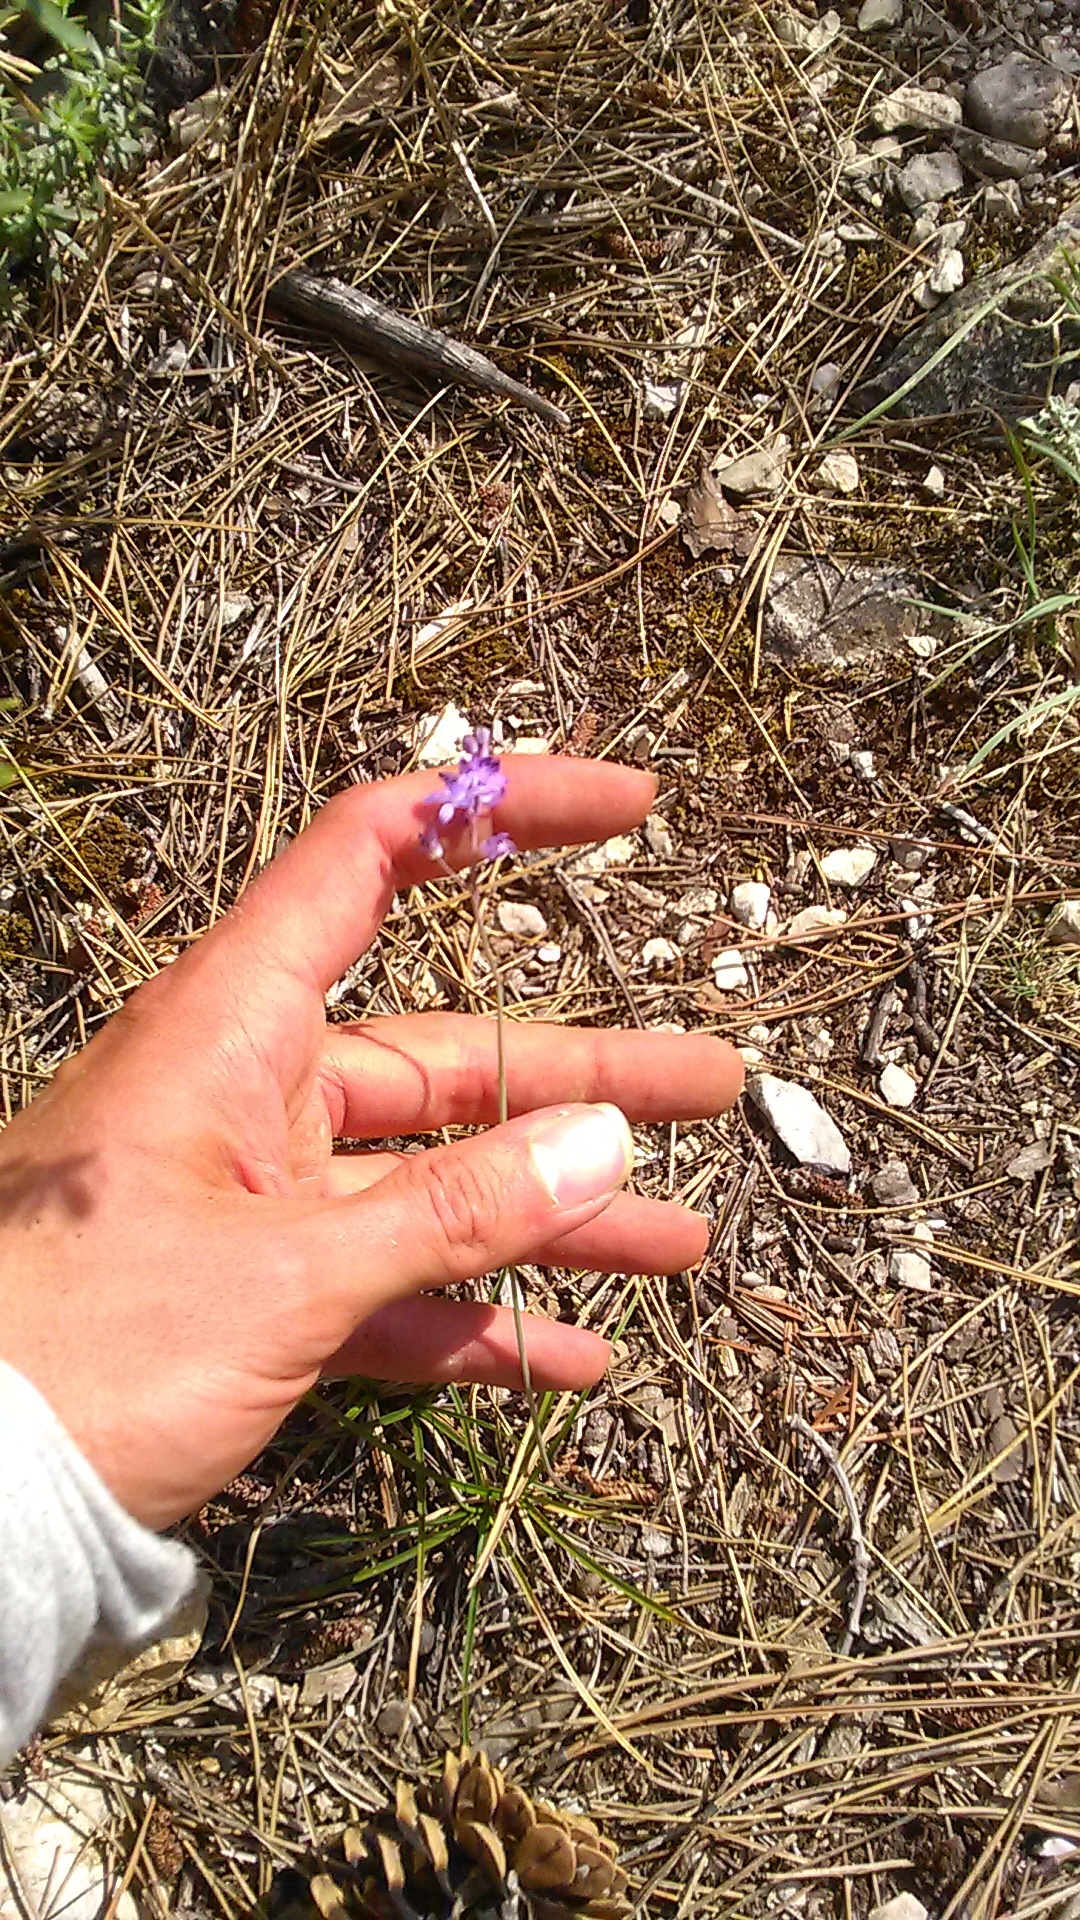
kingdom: Plantae
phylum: Tracheophyta
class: Liliopsida
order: Asparagales
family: Asparagaceae
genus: Prospero
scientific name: Prospero autumnale
